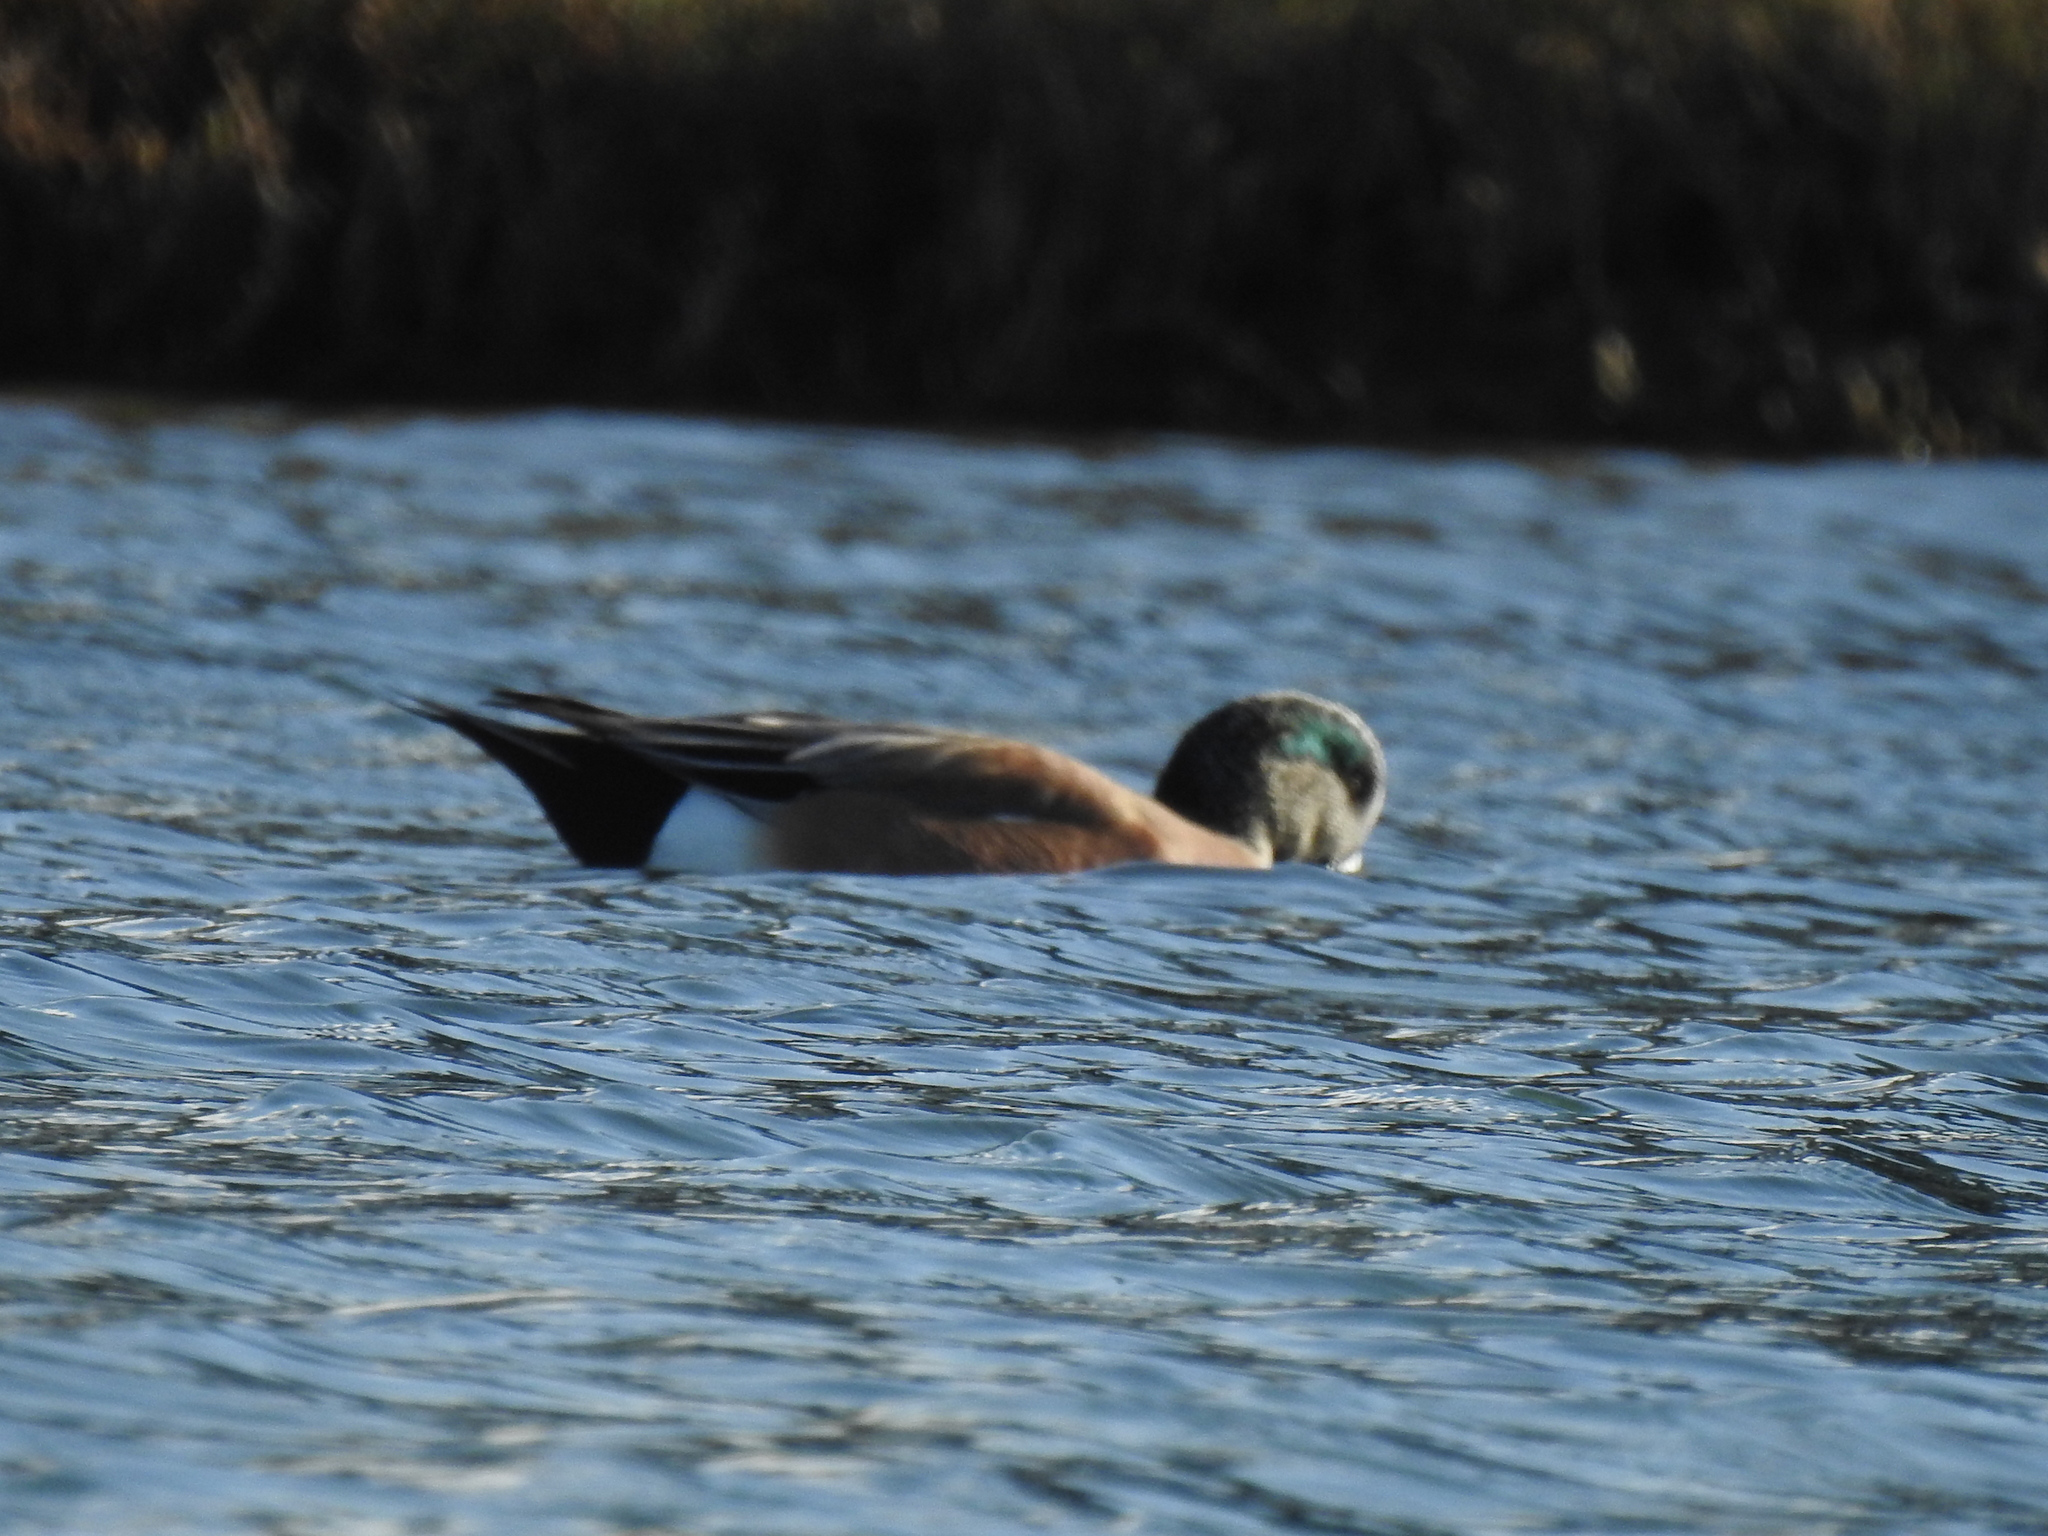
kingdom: Animalia
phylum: Chordata
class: Aves
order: Anseriformes
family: Anatidae
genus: Mareca
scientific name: Mareca americana
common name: American wigeon
